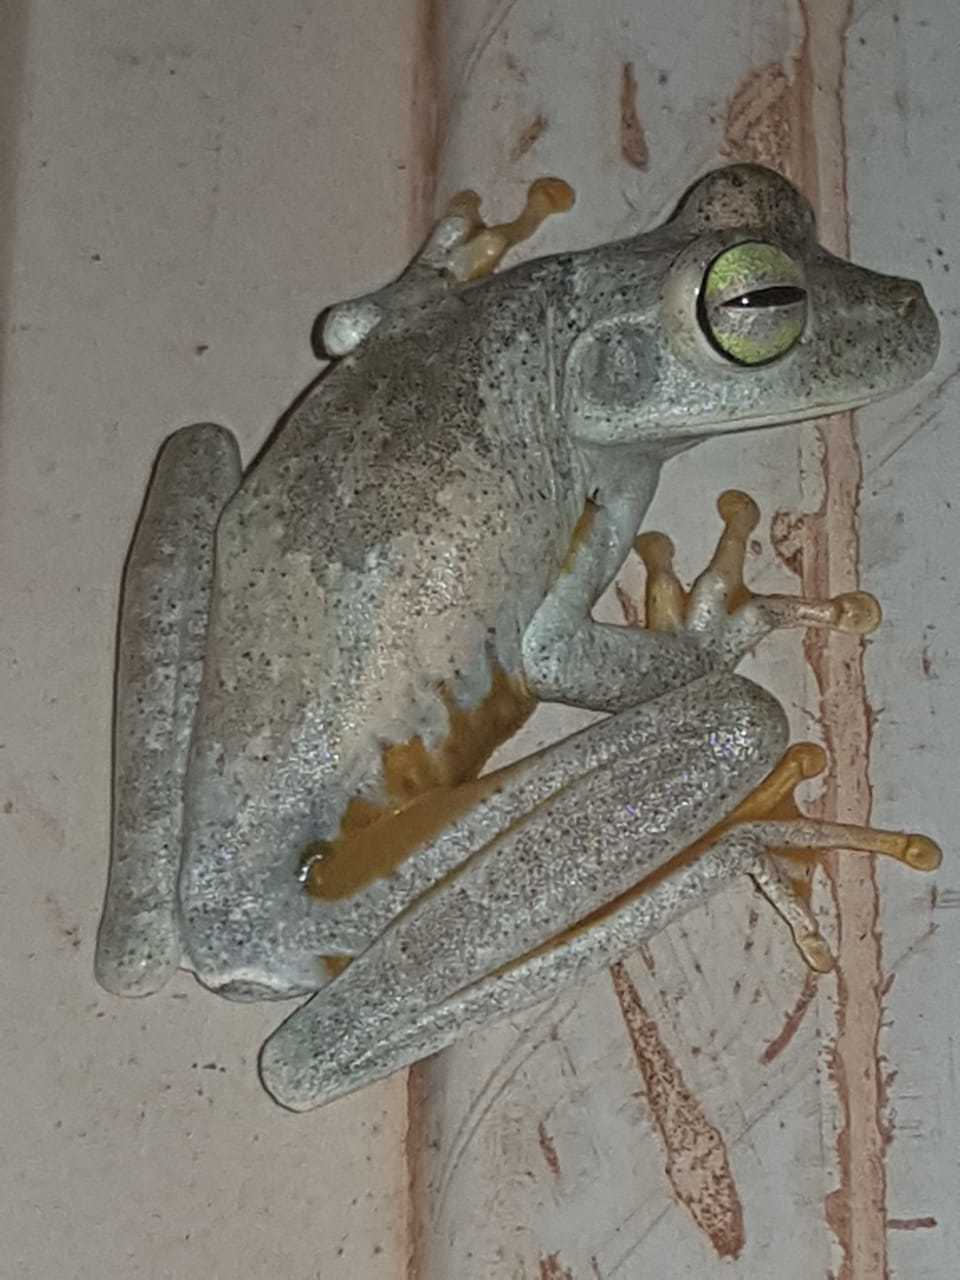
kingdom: Animalia
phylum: Chordata
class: Amphibia
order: Anura
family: Hylidae
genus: Boana
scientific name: Boana xerophylla
